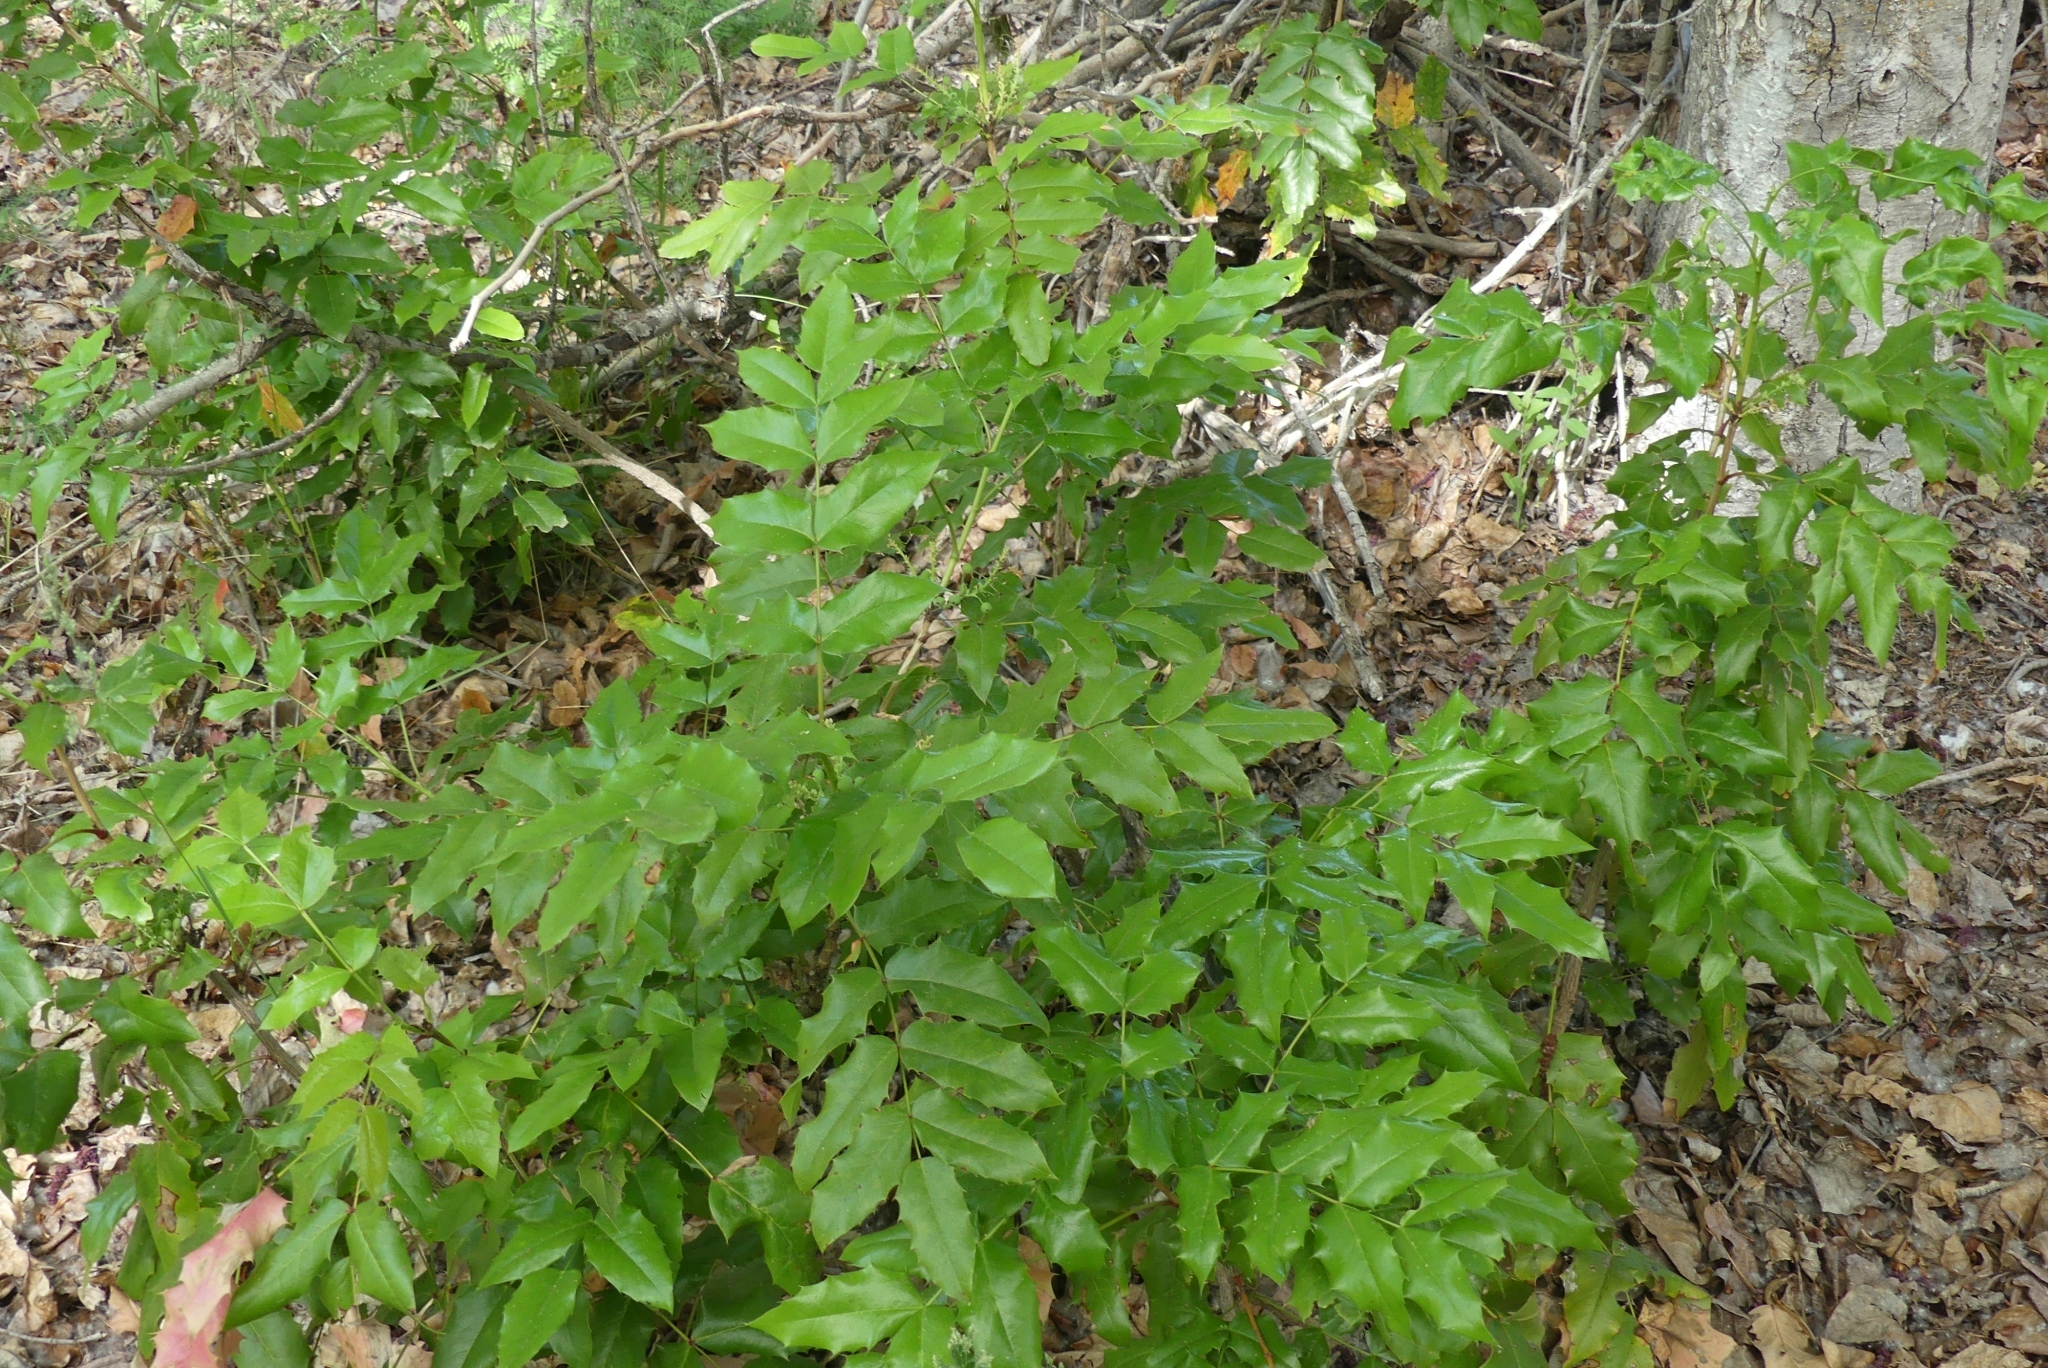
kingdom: Plantae
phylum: Tracheophyta
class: Magnoliopsida
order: Ranunculales
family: Berberidaceae
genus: Mahonia
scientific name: Mahonia aquifolium
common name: Oregon-grape
